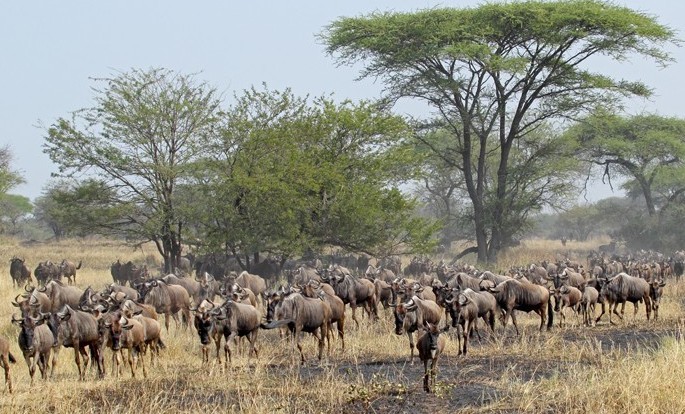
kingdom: Animalia
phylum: Chordata
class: Mammalia
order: Artiodactyla
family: Bovidae
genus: Connochaetes
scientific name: Connochaetes taurinus
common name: Blue wildebeest
